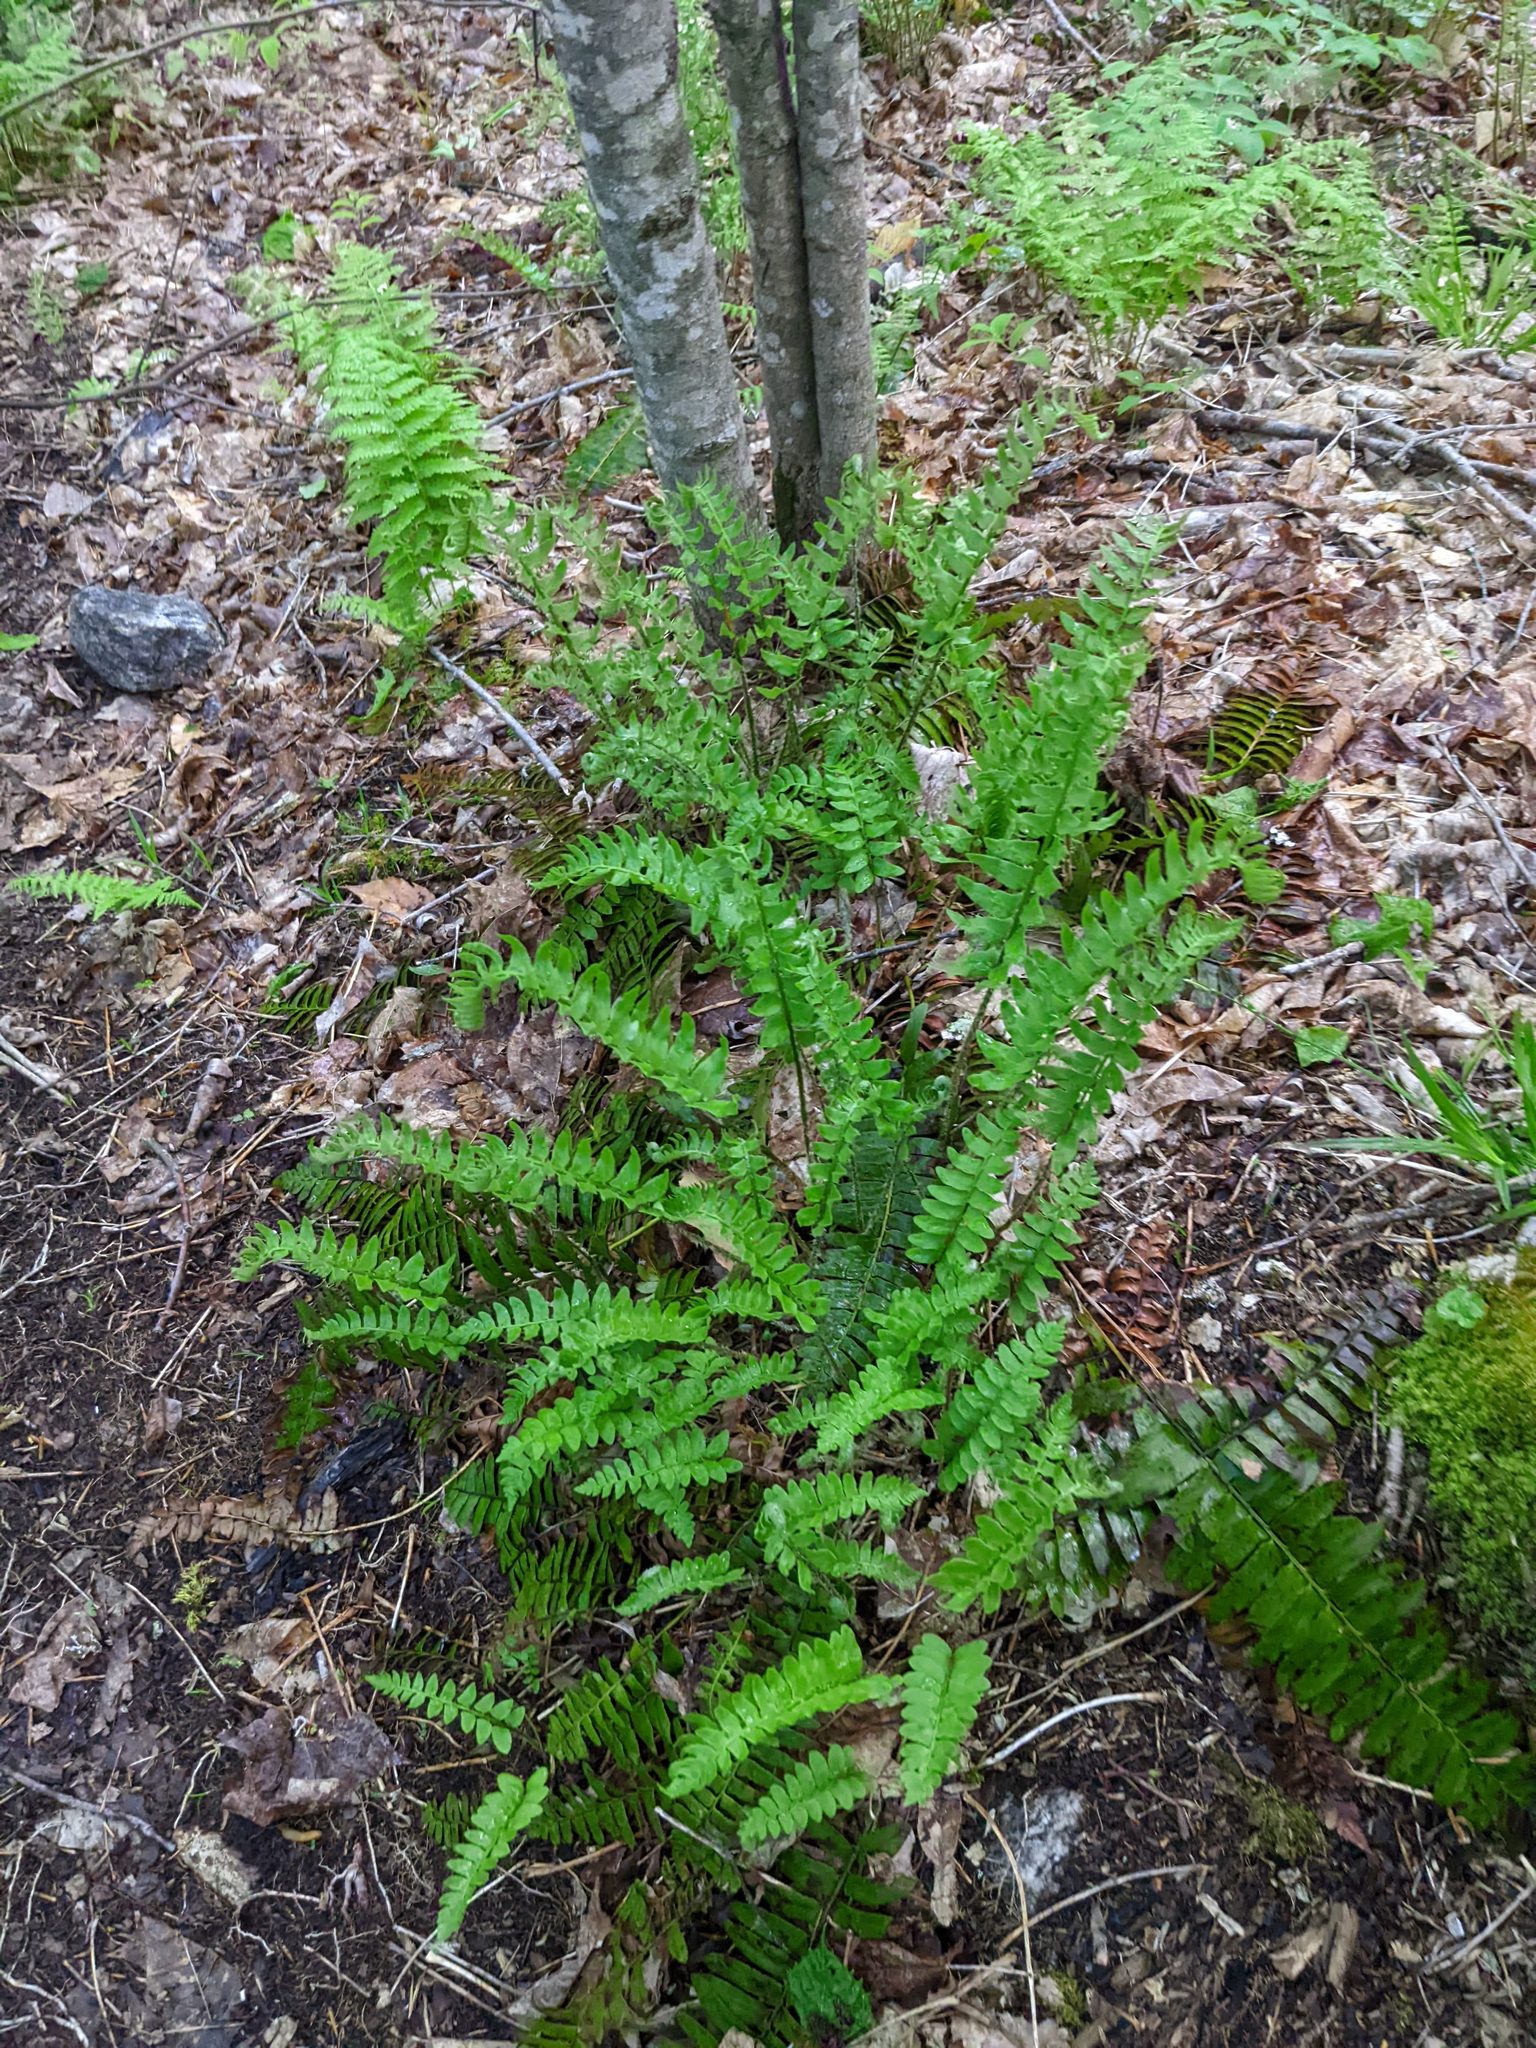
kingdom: Plantae
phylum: Tracheophyta
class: Polypodiopsida
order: Polypodiales
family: Dryopteridaceae
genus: Polystichum
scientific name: Polystichum acrostichoides
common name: Christmas fern
